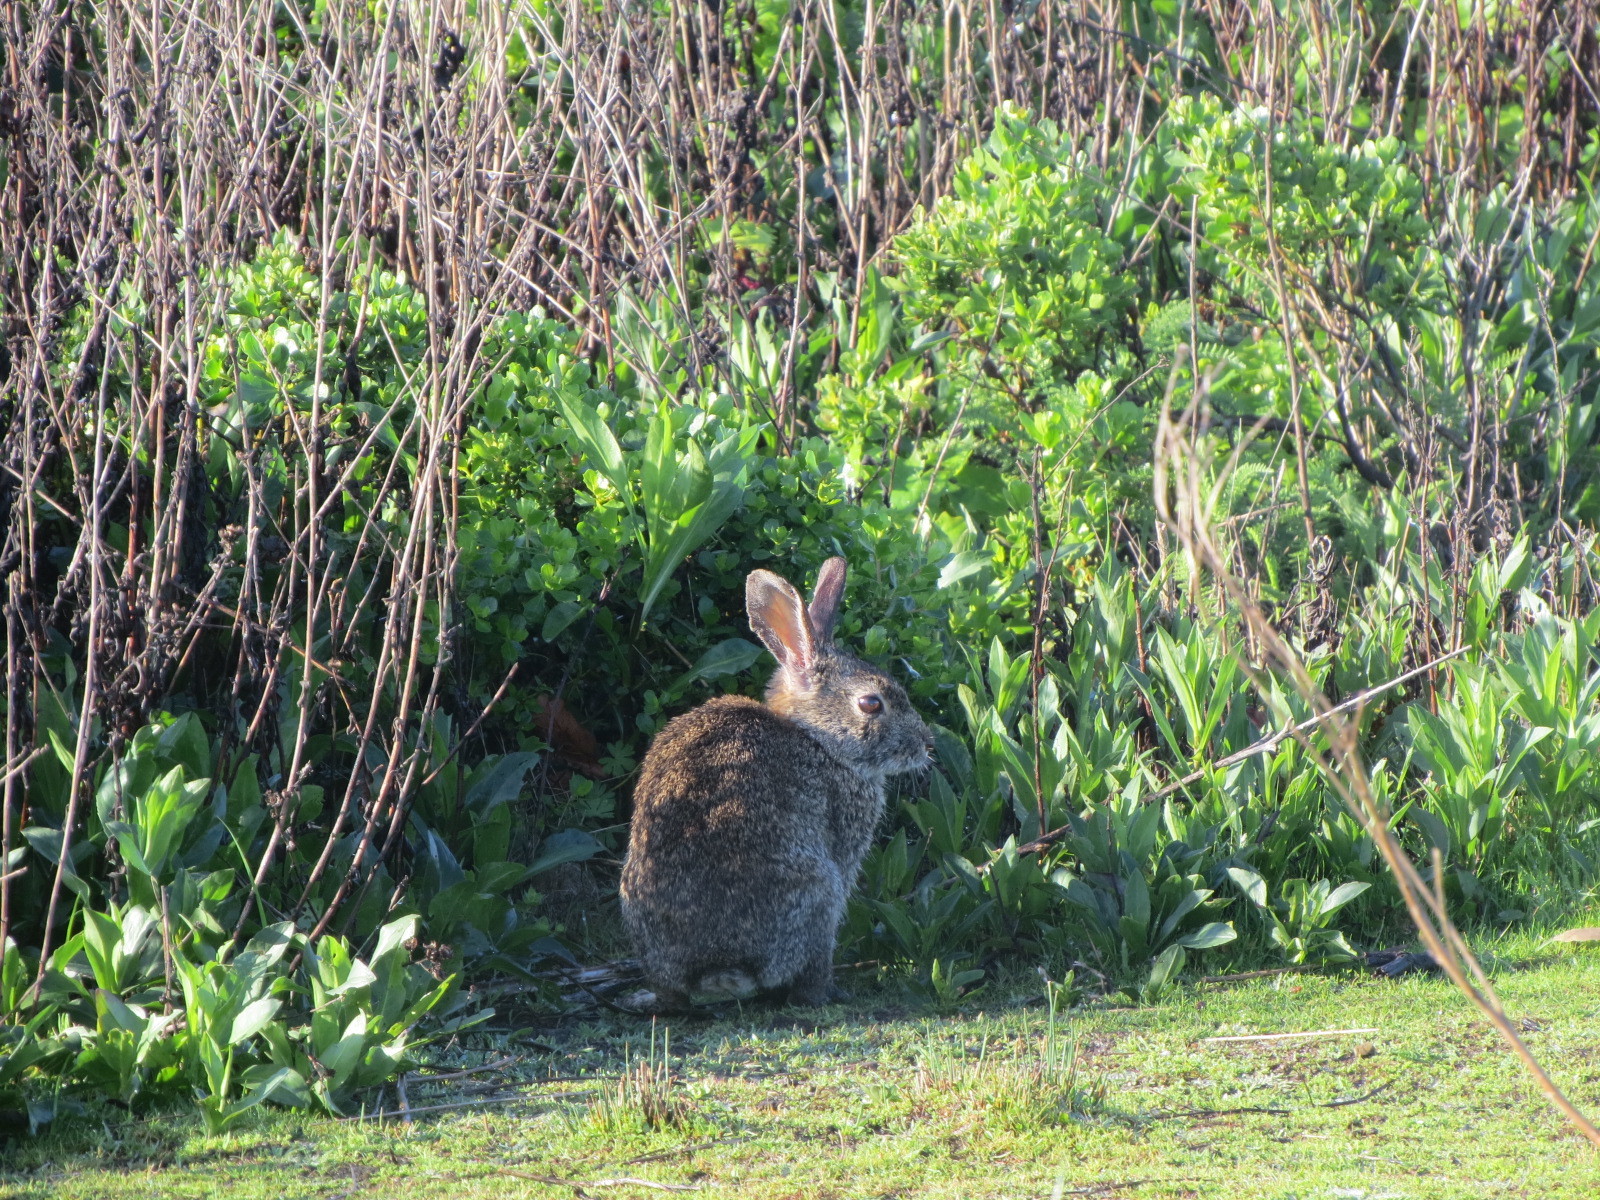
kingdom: Animalia
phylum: Chordata
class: Mammalia
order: Lagomorpha
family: Leporidae
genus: Sylvilagus
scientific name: Sylvilagus bachmani
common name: Brush rabbit
